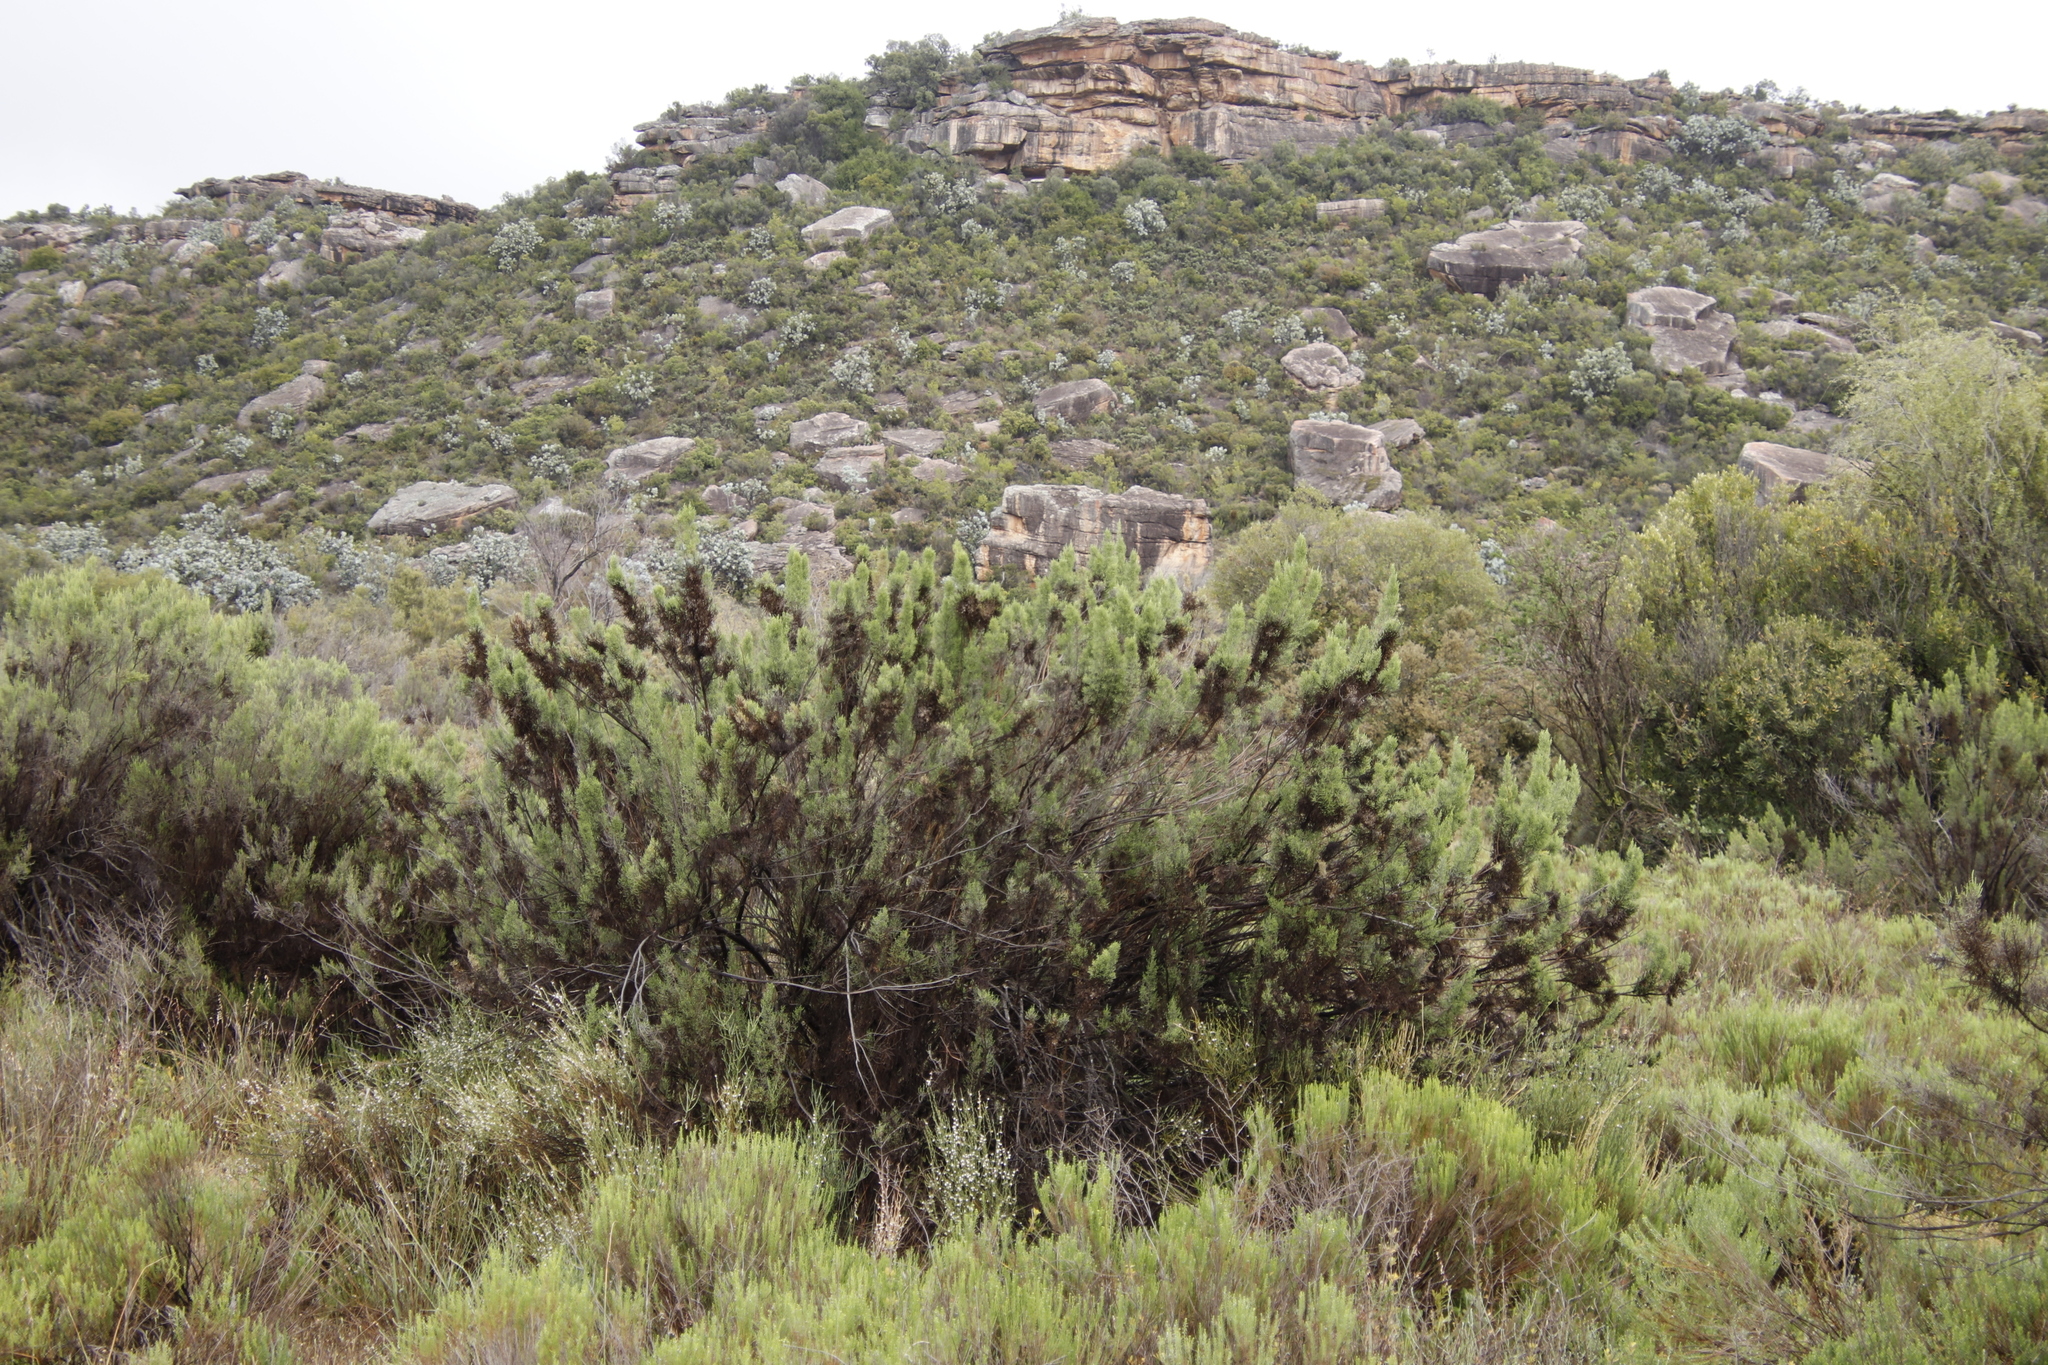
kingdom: Plantae
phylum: Tracheophyta
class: Magnoliopsida
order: Asterales
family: Asteraceae
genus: Dicerothamnus
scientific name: Dicerothamnus rhinocerotis
